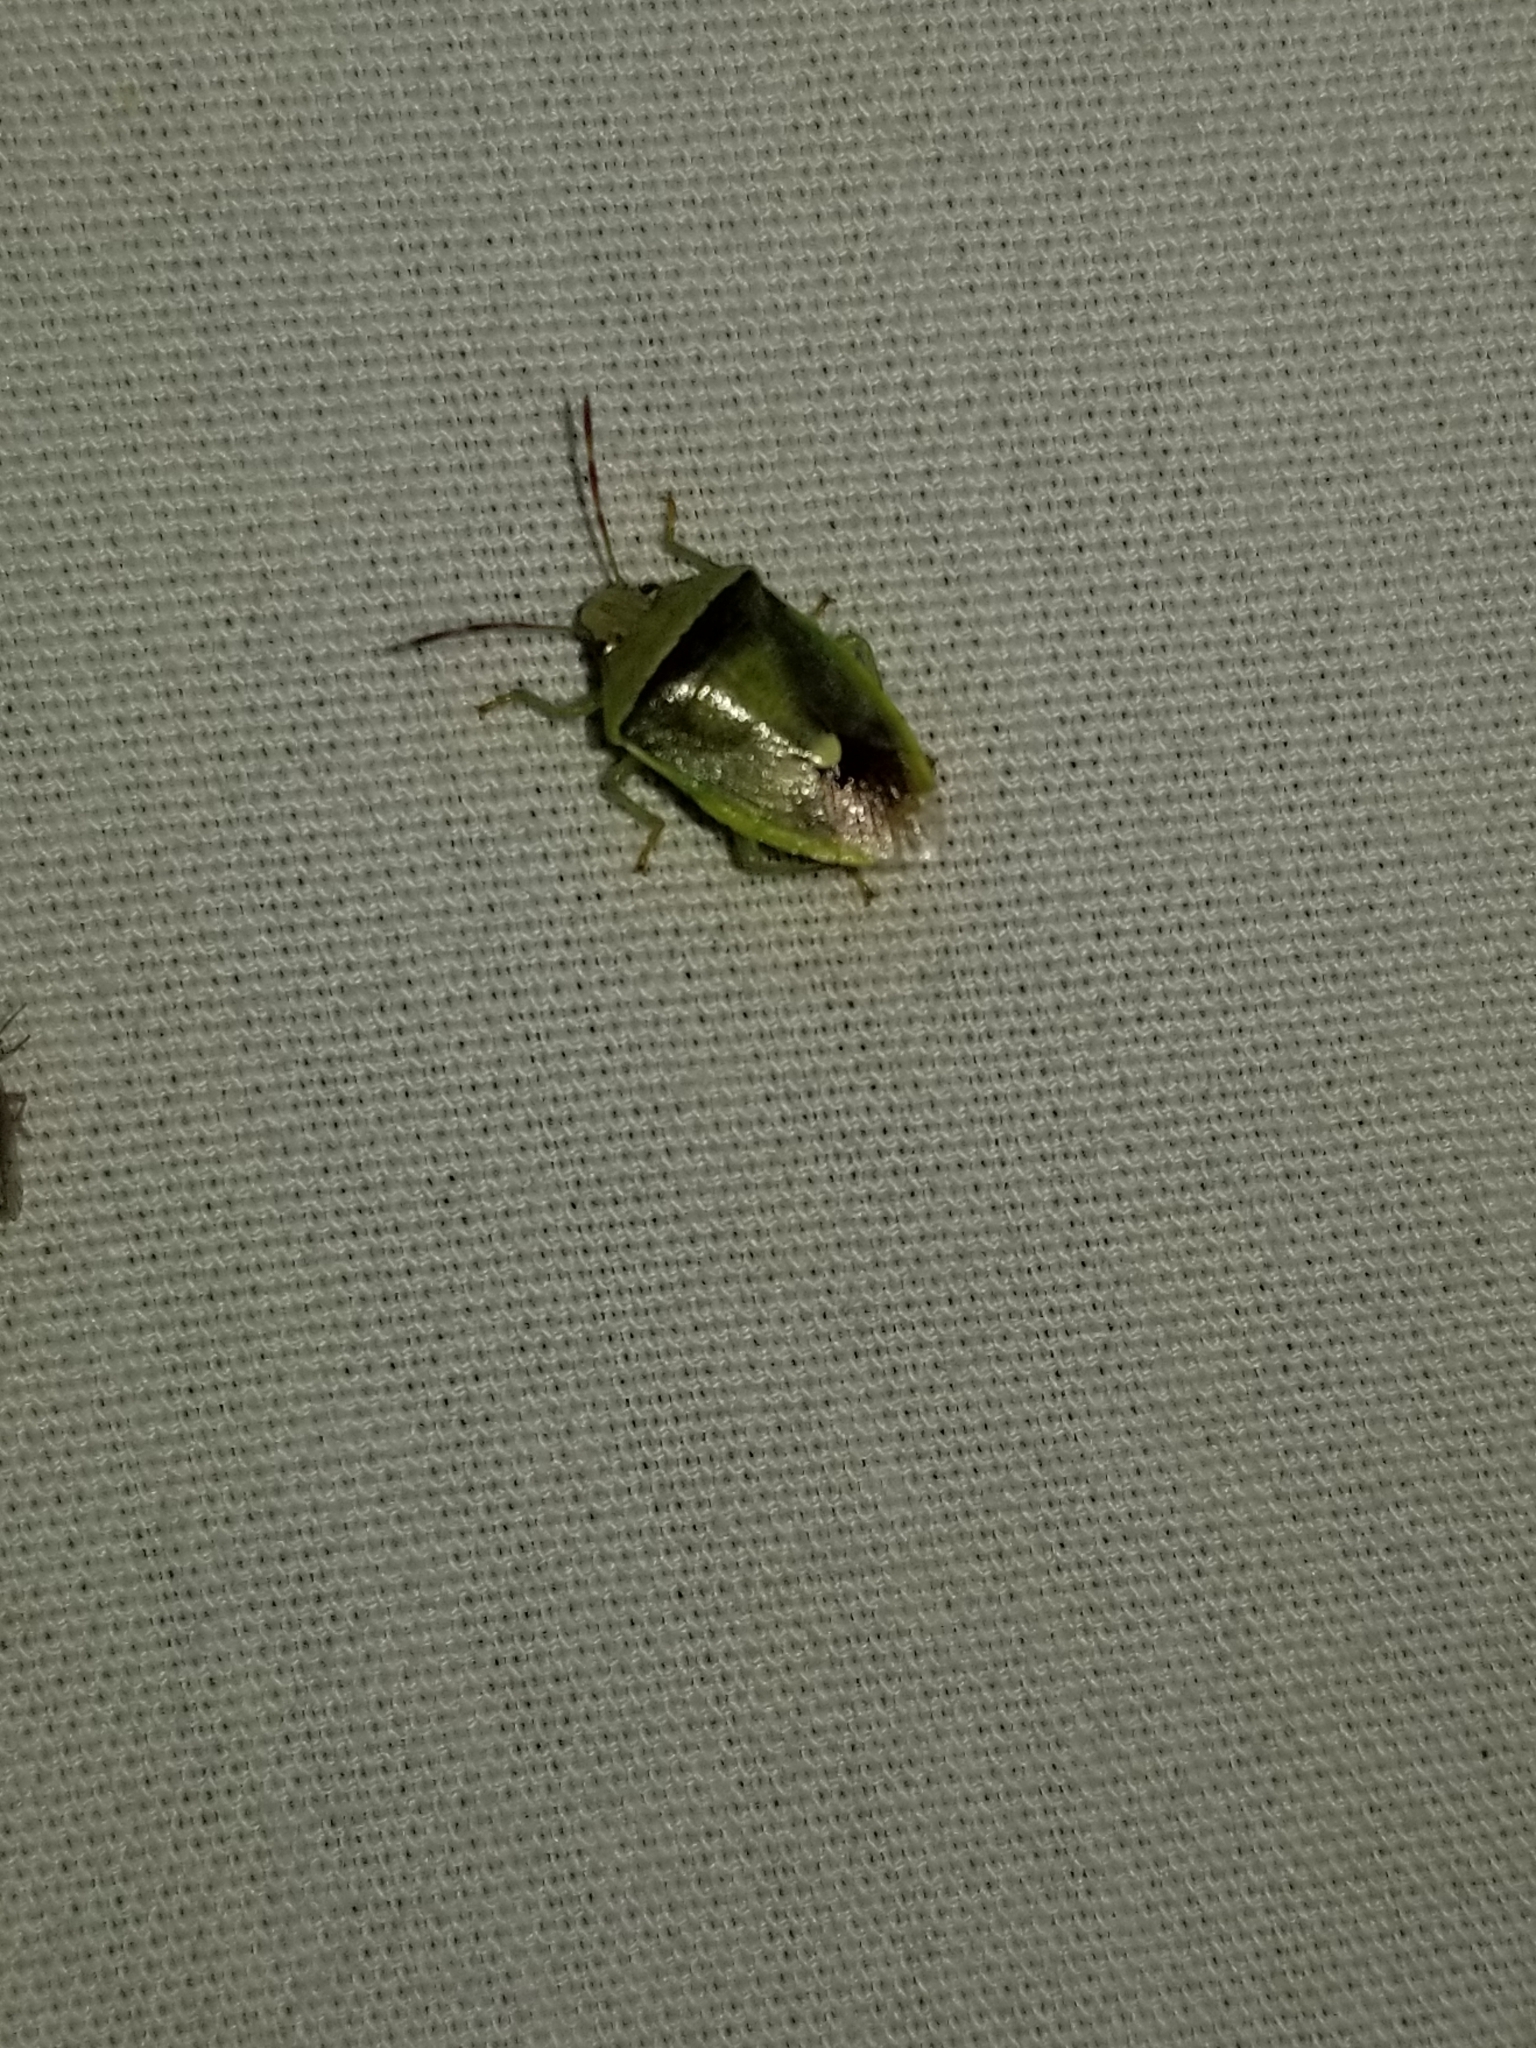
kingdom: Animalia
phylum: Arthropoda
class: Insecta
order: Hemiptera
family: Pentatomidae
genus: Banasa
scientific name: Banasa dimidiata
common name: Green burgundy stink bug
